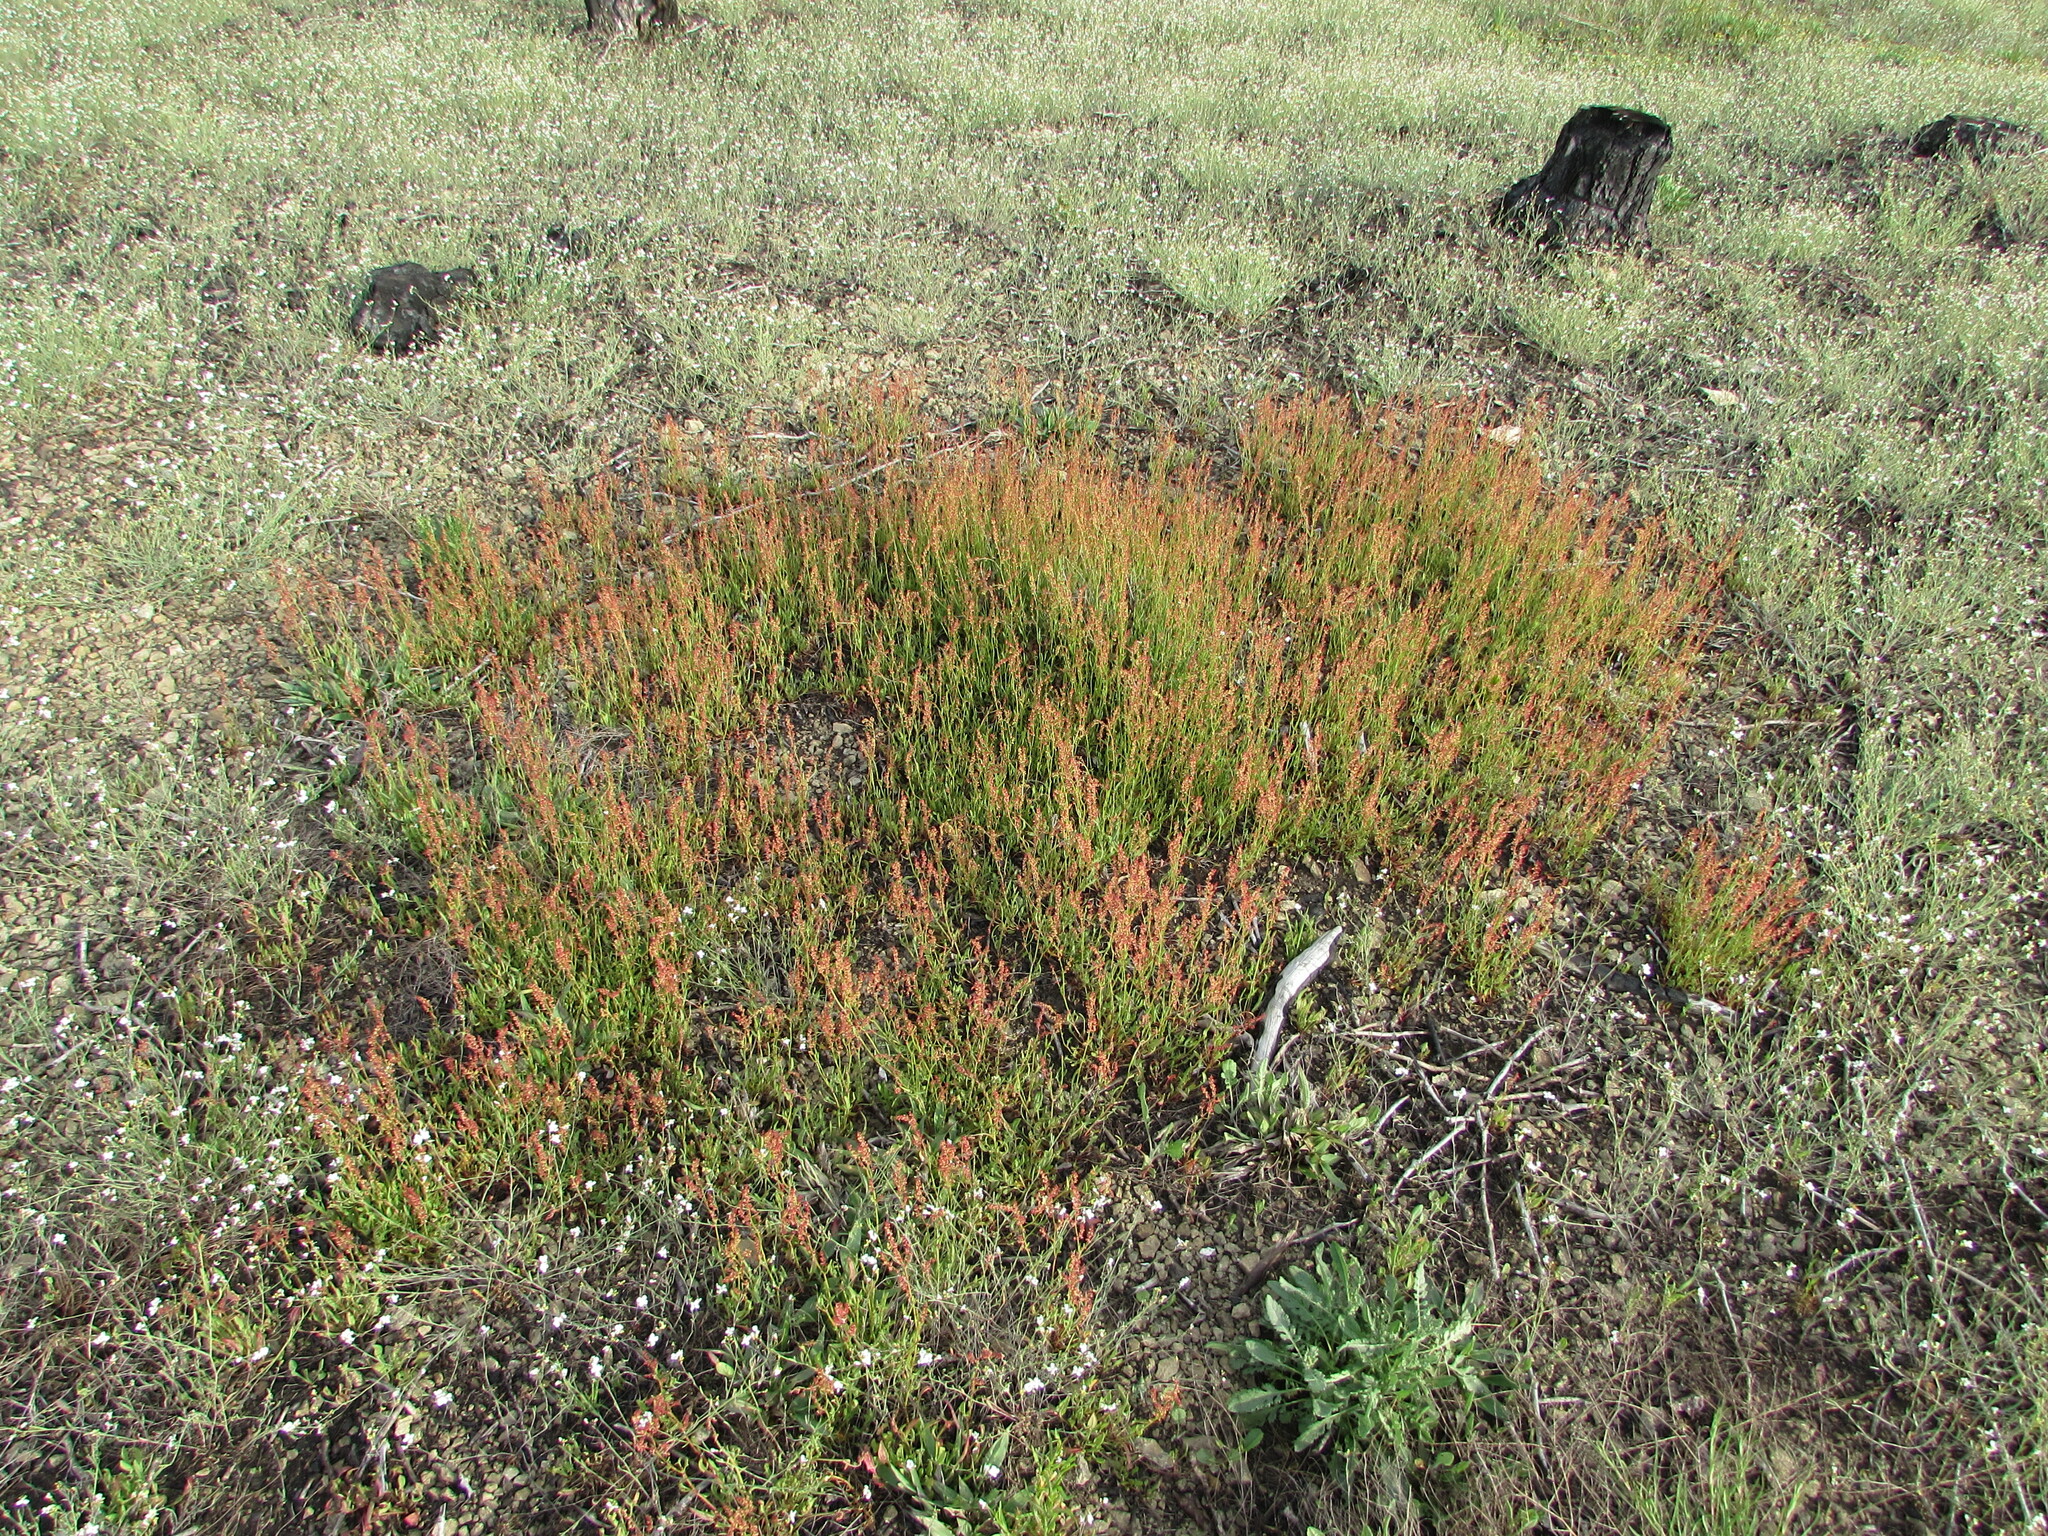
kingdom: Plantae
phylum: Tracheophyta
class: Magnoliopsida
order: Caryophyllales
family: Polygonaceae
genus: Rumex
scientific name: Rumex acetosella
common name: Common sheep sorrel
